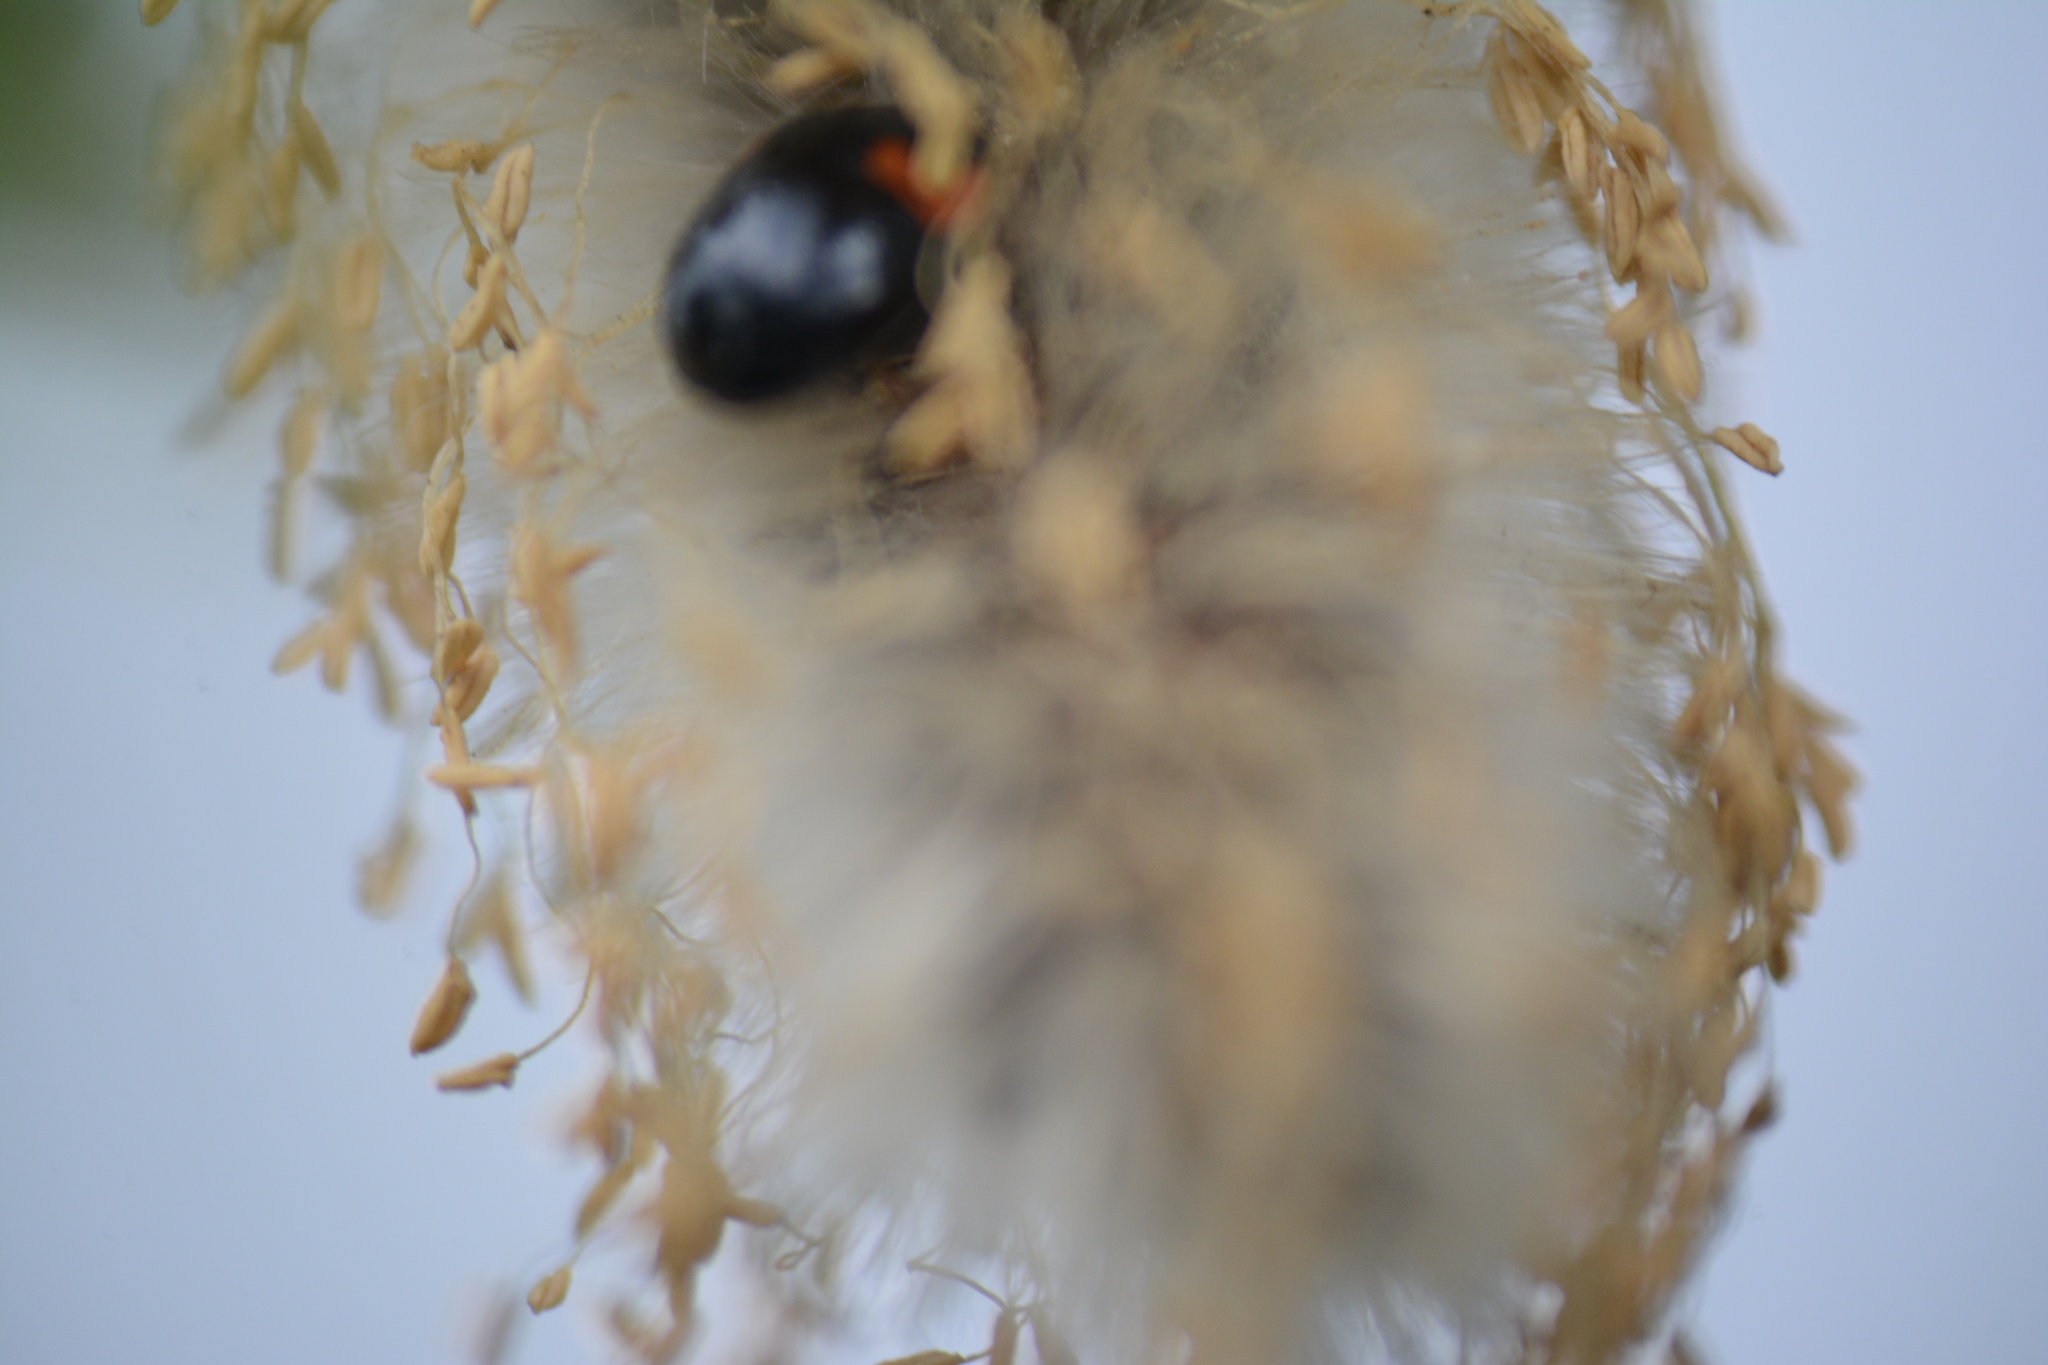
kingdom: Animalia
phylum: Arthropoda
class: Insecta
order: Coleoptera
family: Coccinellidae
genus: Adalia
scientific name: Adalia decempunctata
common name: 10-spot ladybird
